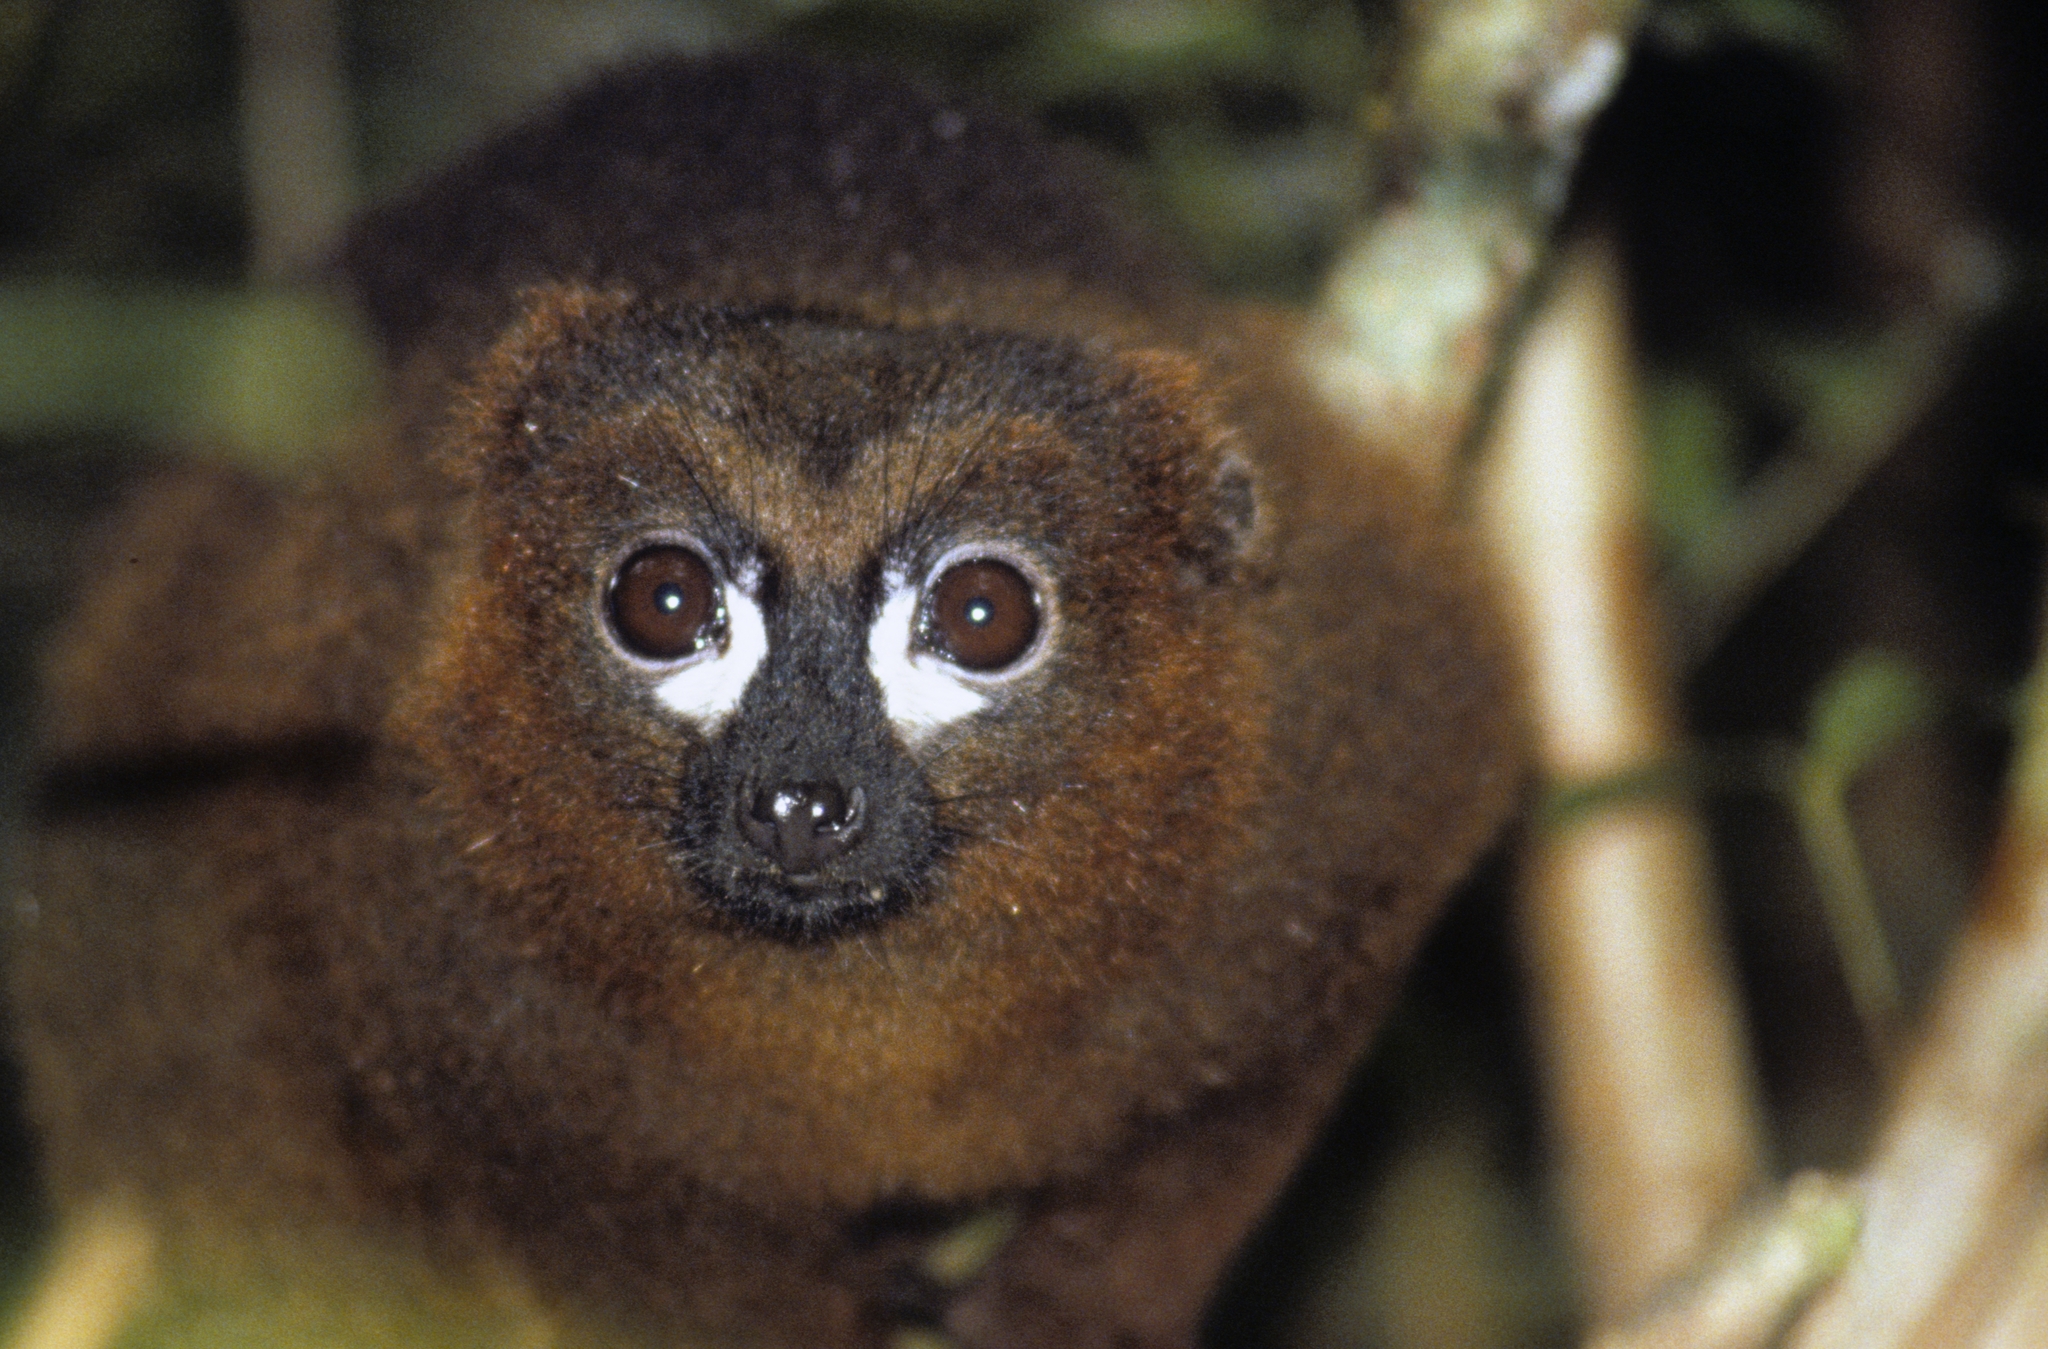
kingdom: Animalia
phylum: Chordata
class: Mammalia
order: Primates
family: Lemuridae
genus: Eulemur
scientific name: Eulemur rubriventer
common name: Red-bellied lemur
